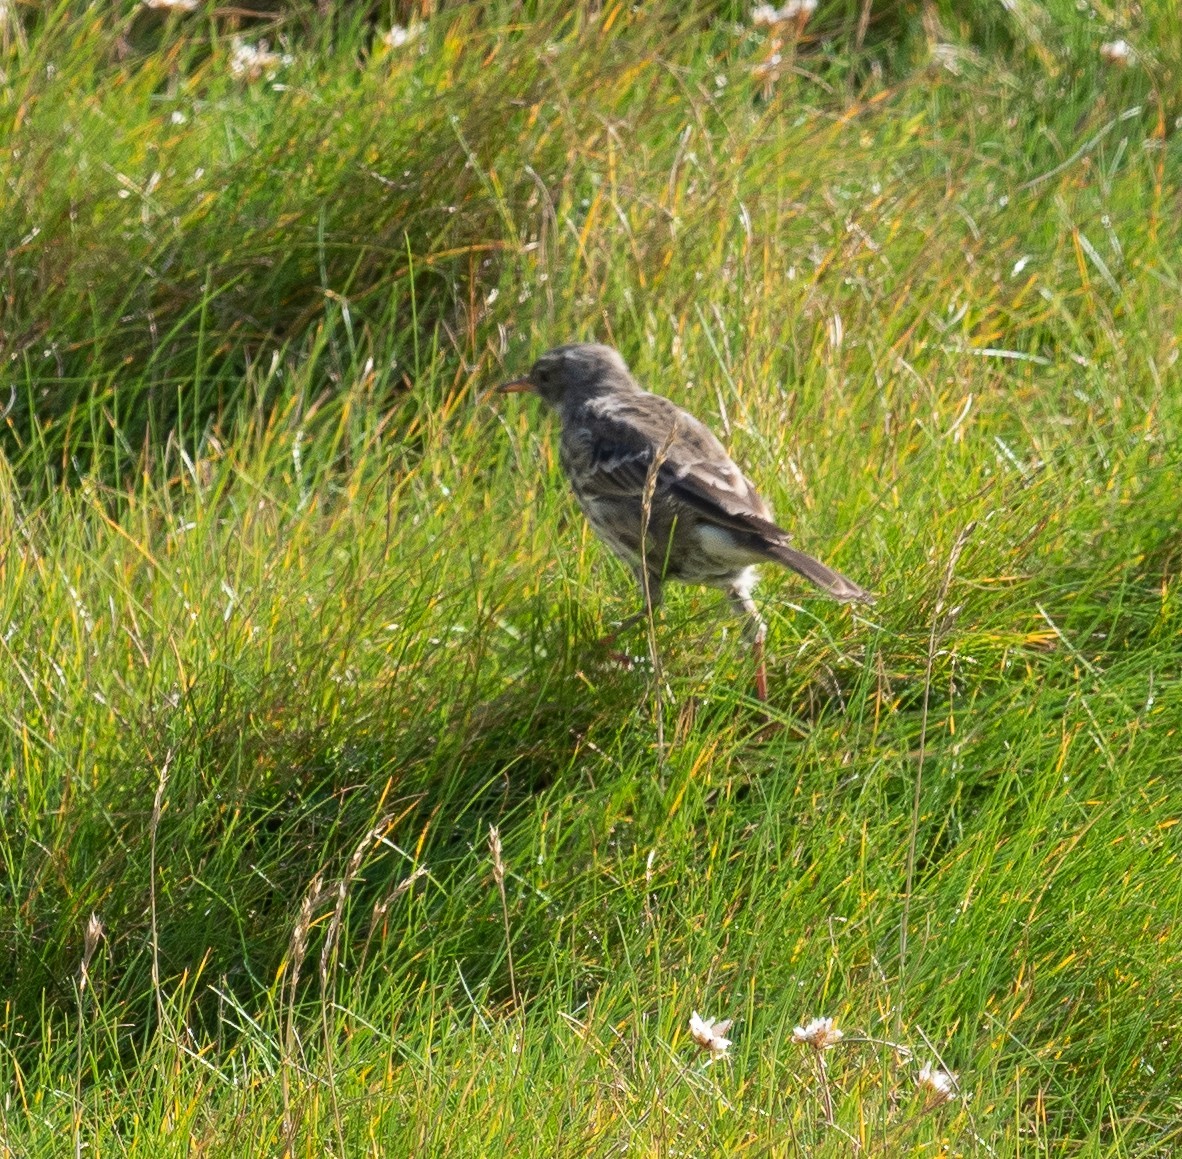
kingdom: Animalia
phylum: Chordata
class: Aves
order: Passeriformes
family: Motacillidae
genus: Anthus
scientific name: Anthus petrosus
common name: Eurasian rock pipit
